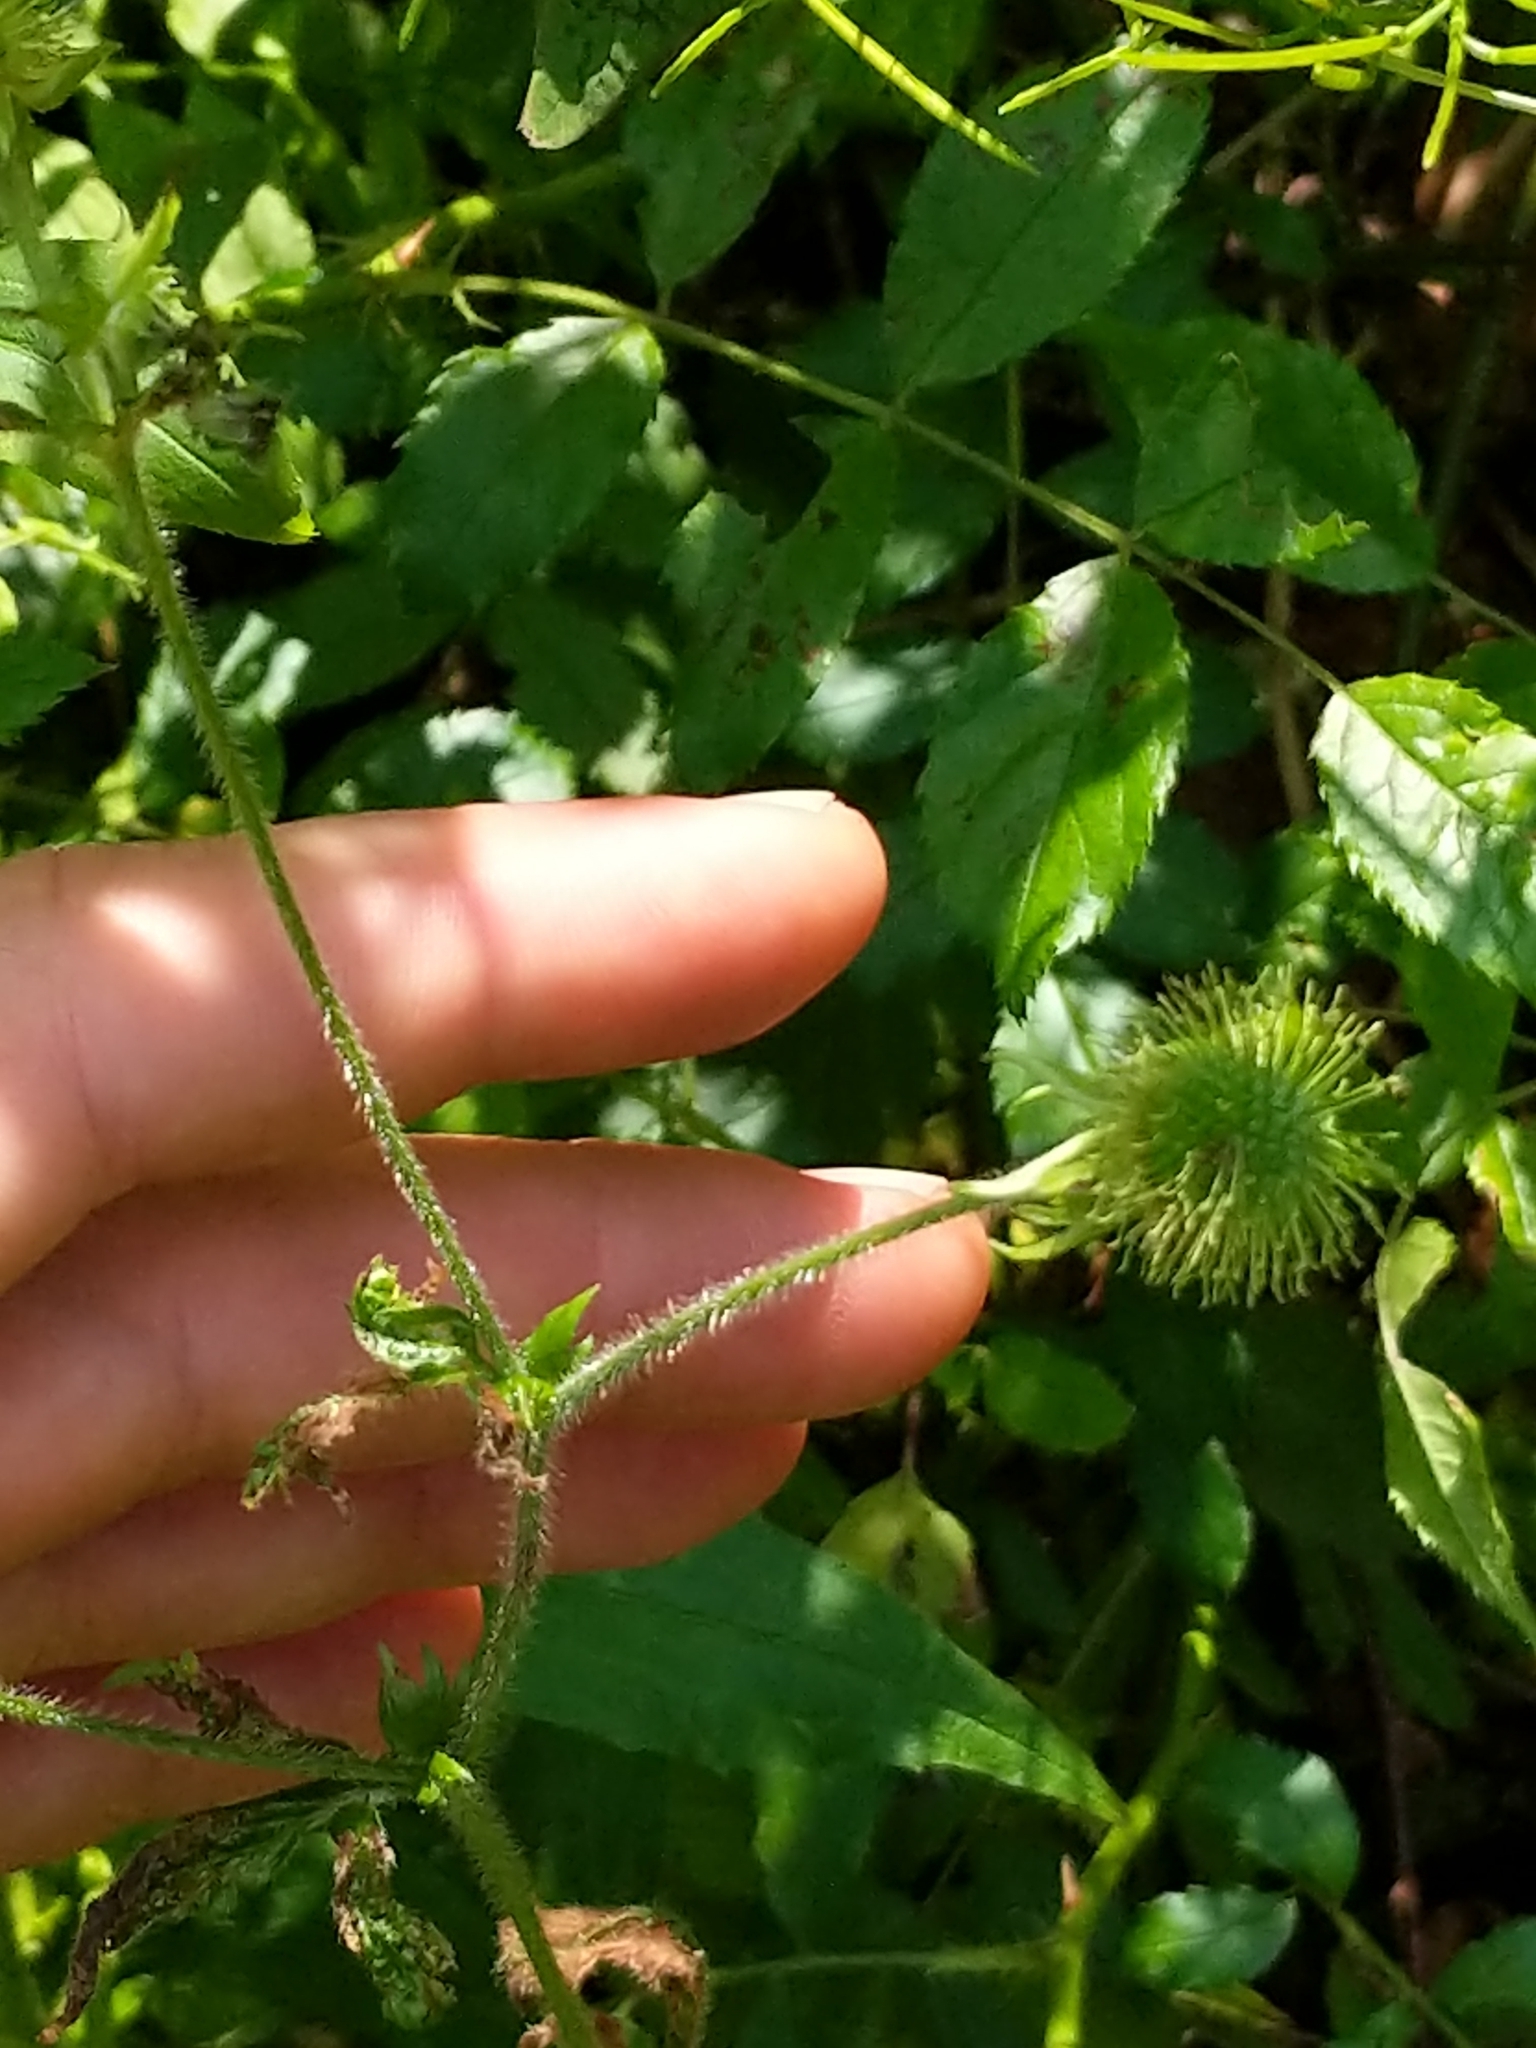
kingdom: Plantae
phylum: Tracheophyta
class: Magnoliopsida
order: Rosales
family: Rosaceae
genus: Geum
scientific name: Geum laciniatum
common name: Rough avens
